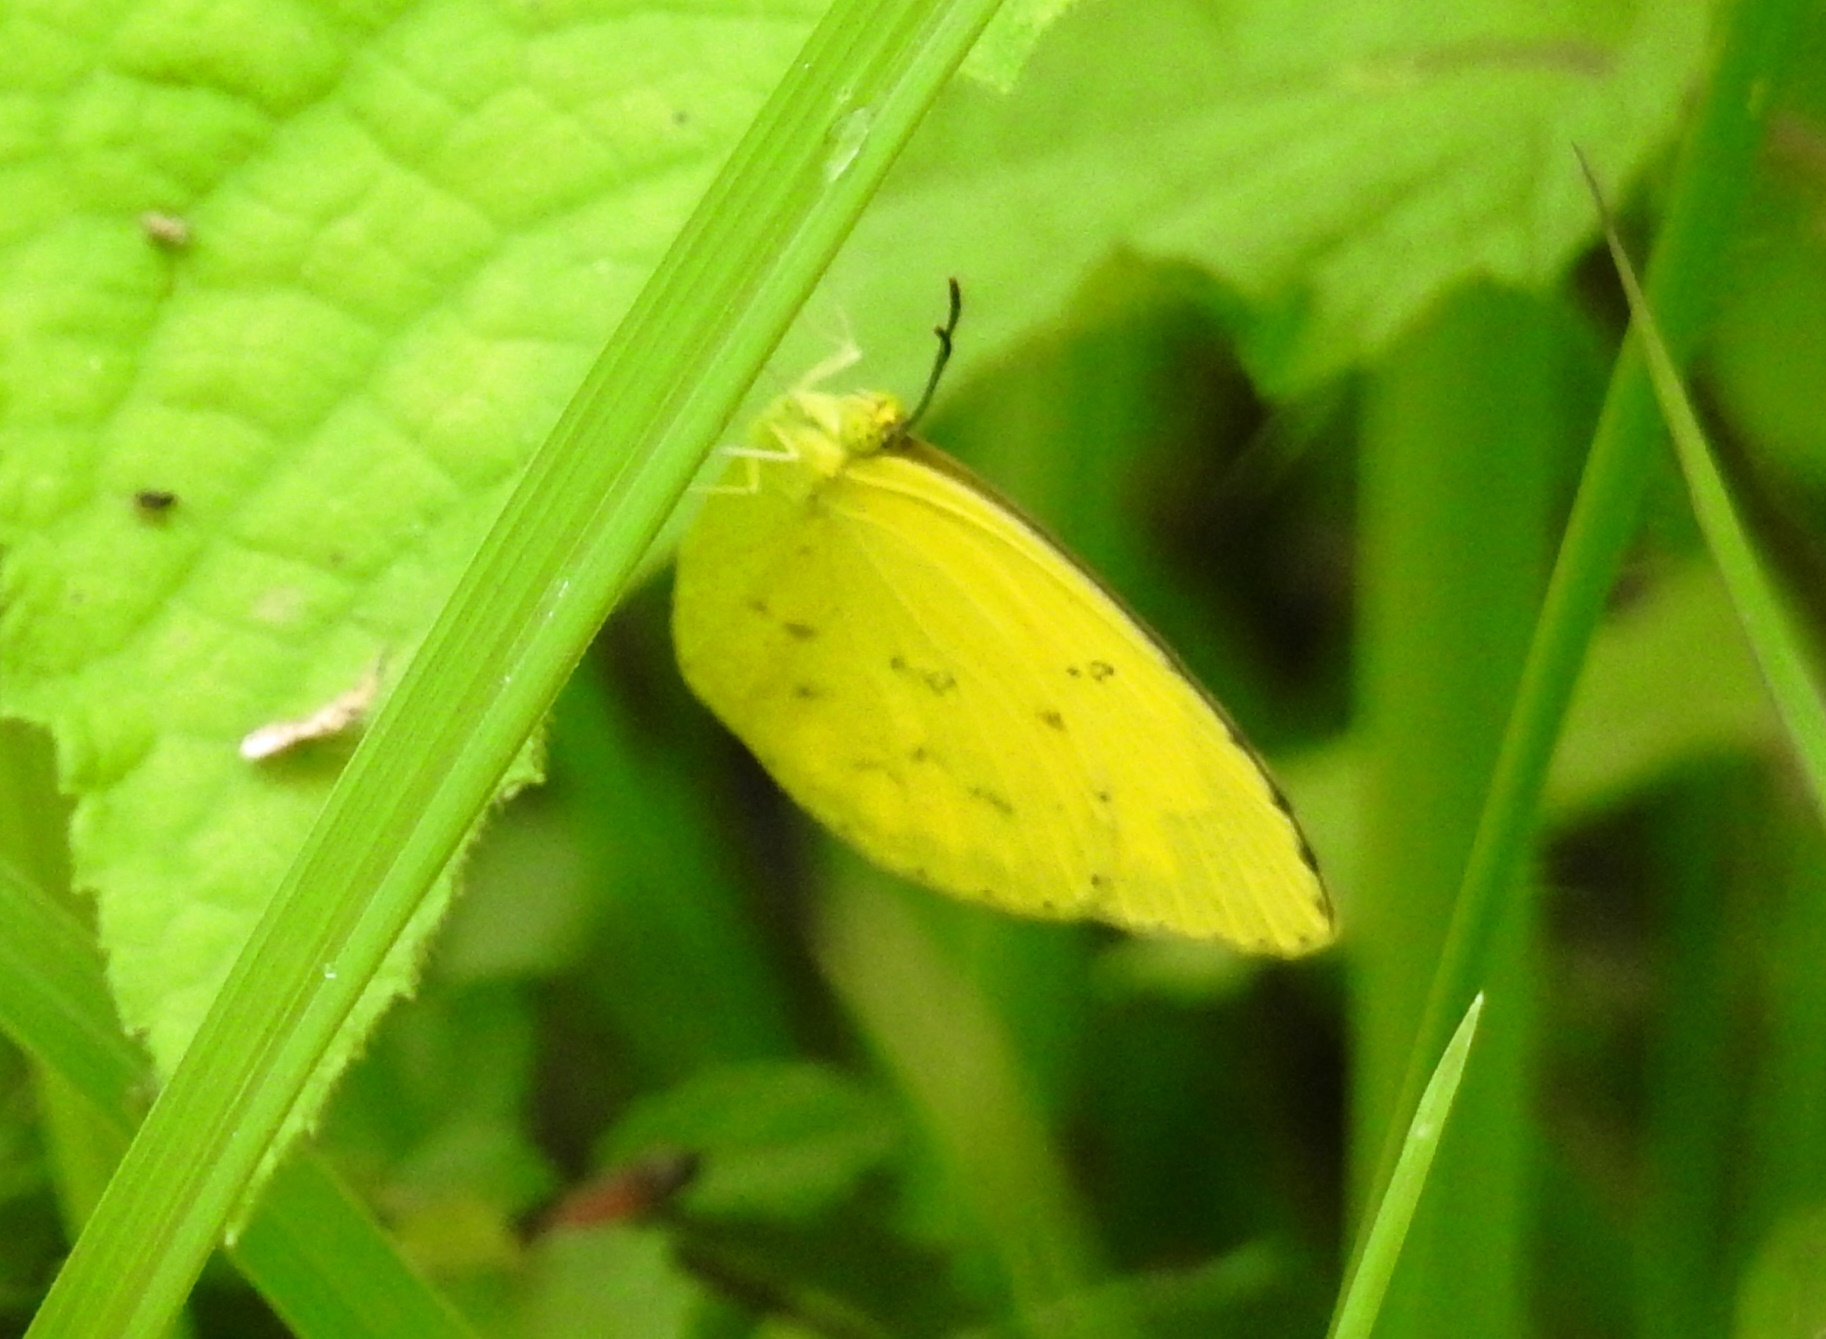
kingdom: Animalia
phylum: Arthropoda
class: Insecta
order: Lepidoptera
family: Pieridae
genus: Eurema
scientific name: Eurema hecabe
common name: Pale grass yellow
